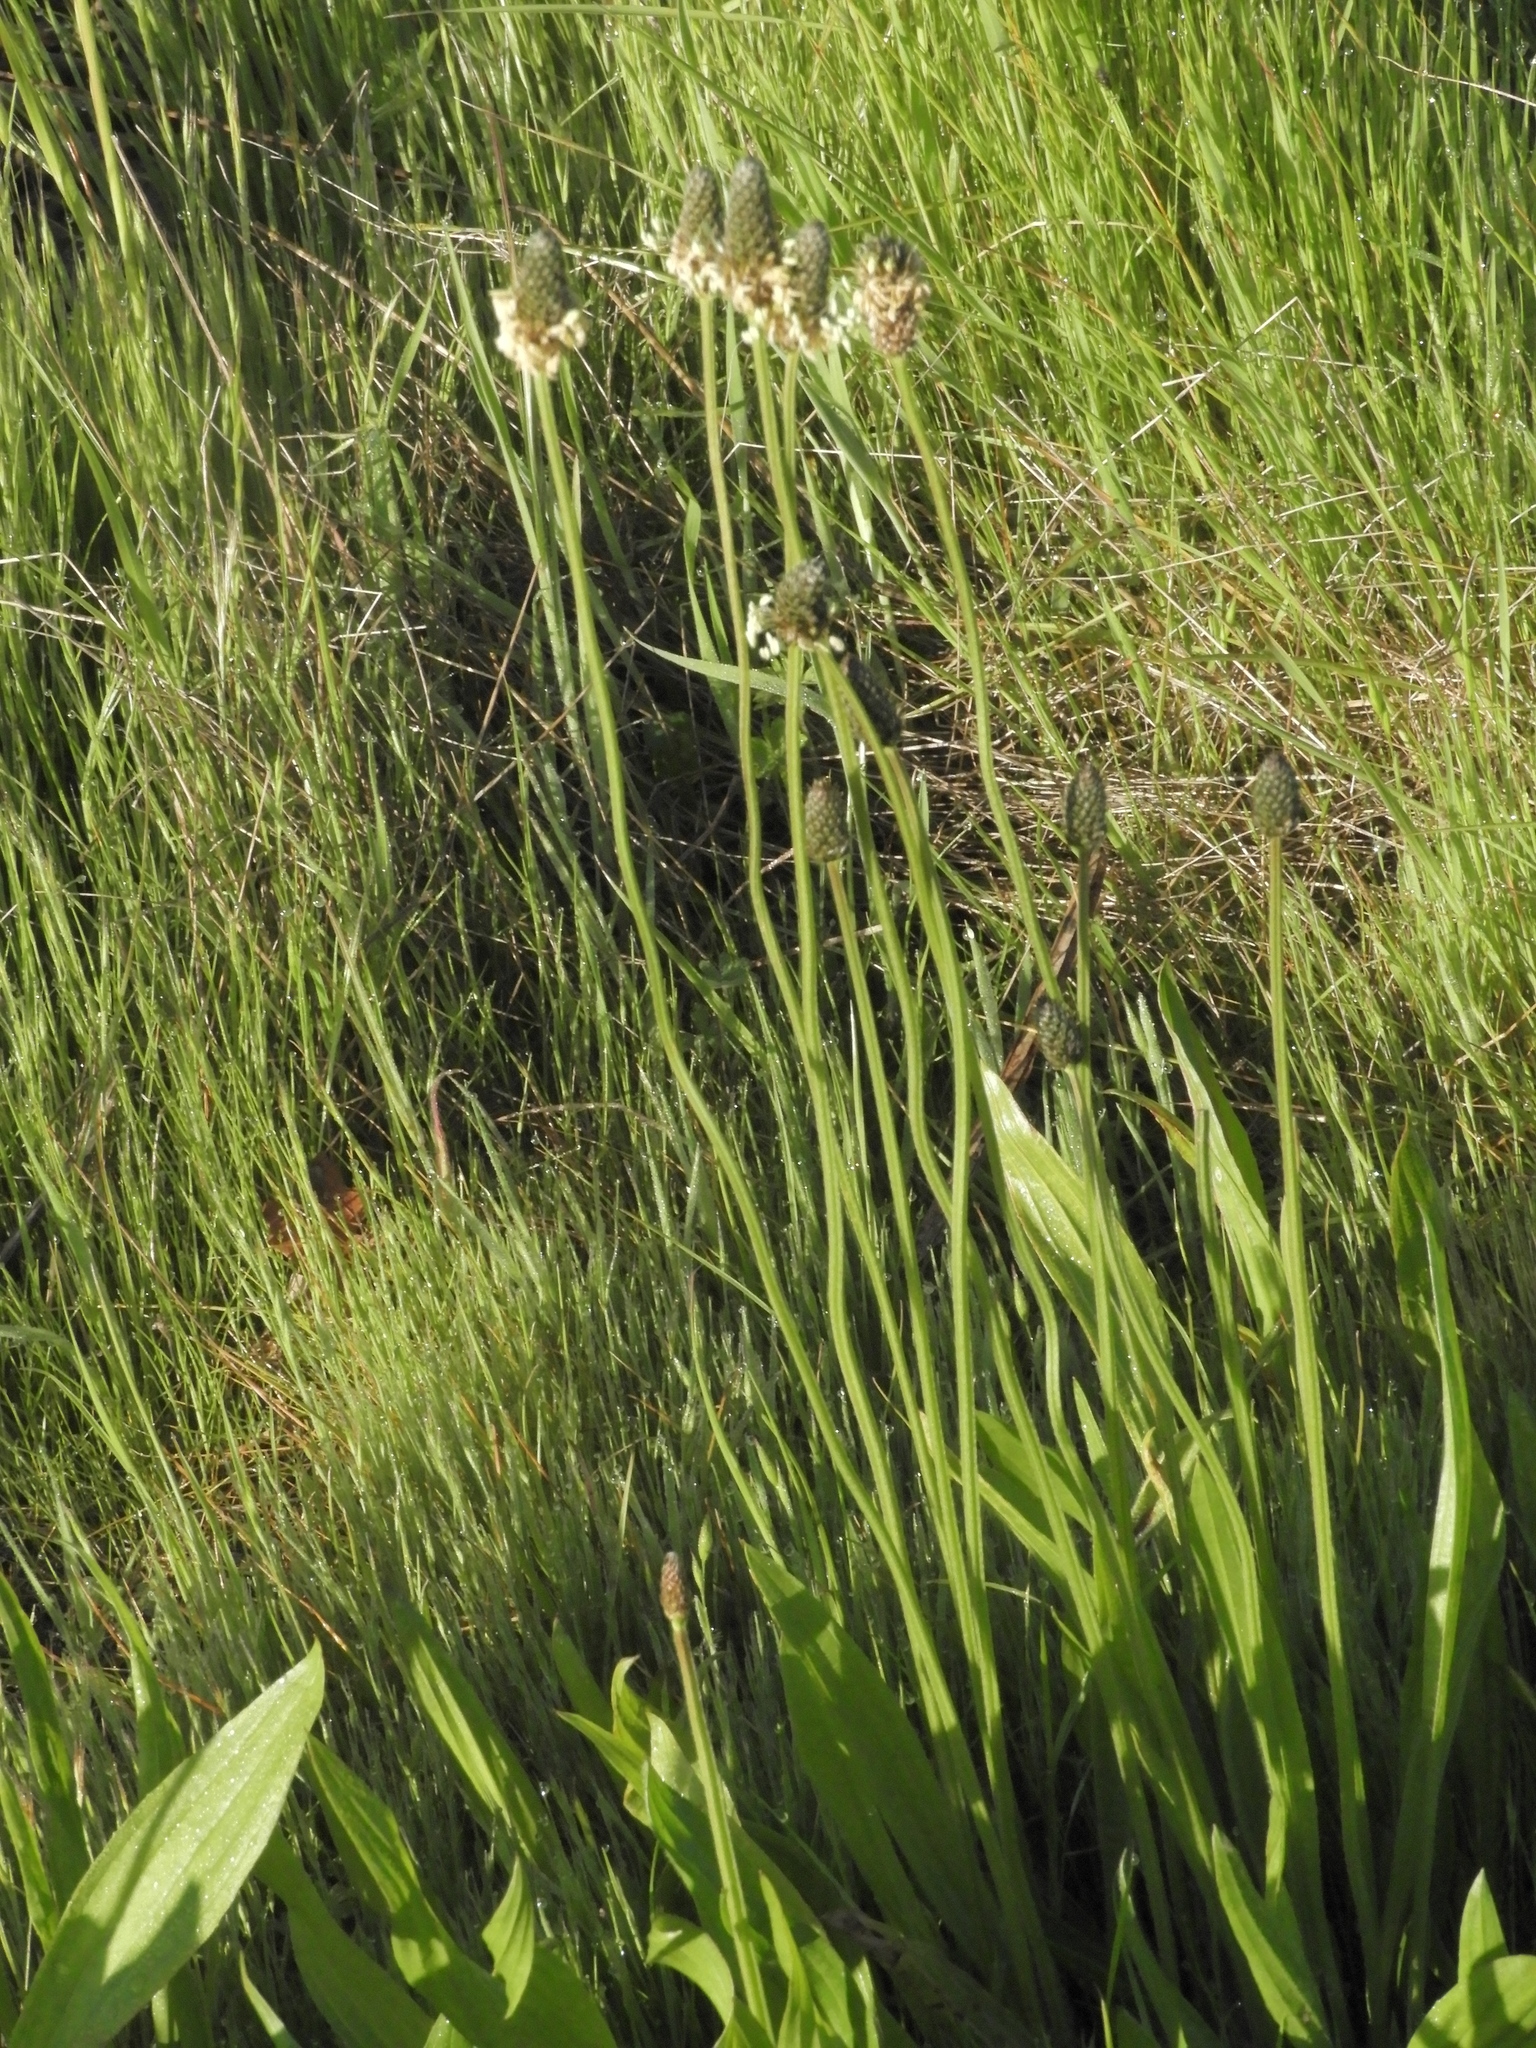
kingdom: Plantae
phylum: Tracheophyta
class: Magnoliopsida
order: Lamiales
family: Plantaginaceae
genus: Plantago
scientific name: Plantago lanceolata
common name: Ribwort plantain
